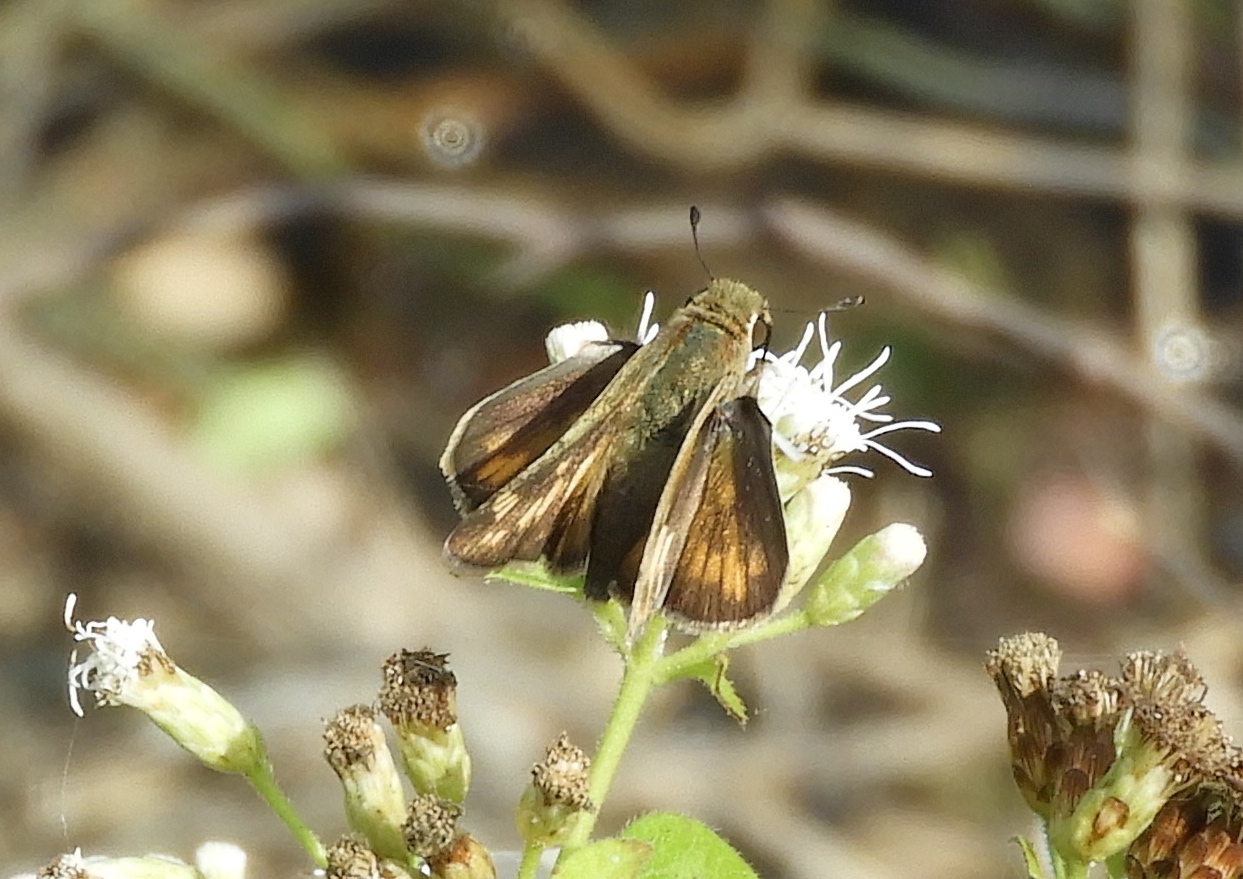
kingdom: Animalia
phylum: Arthropoda
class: Insecta
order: Lepidoptera
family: Hesperiidae
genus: Hylephila
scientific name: Hylephila phyleus
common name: Fiery skipper
